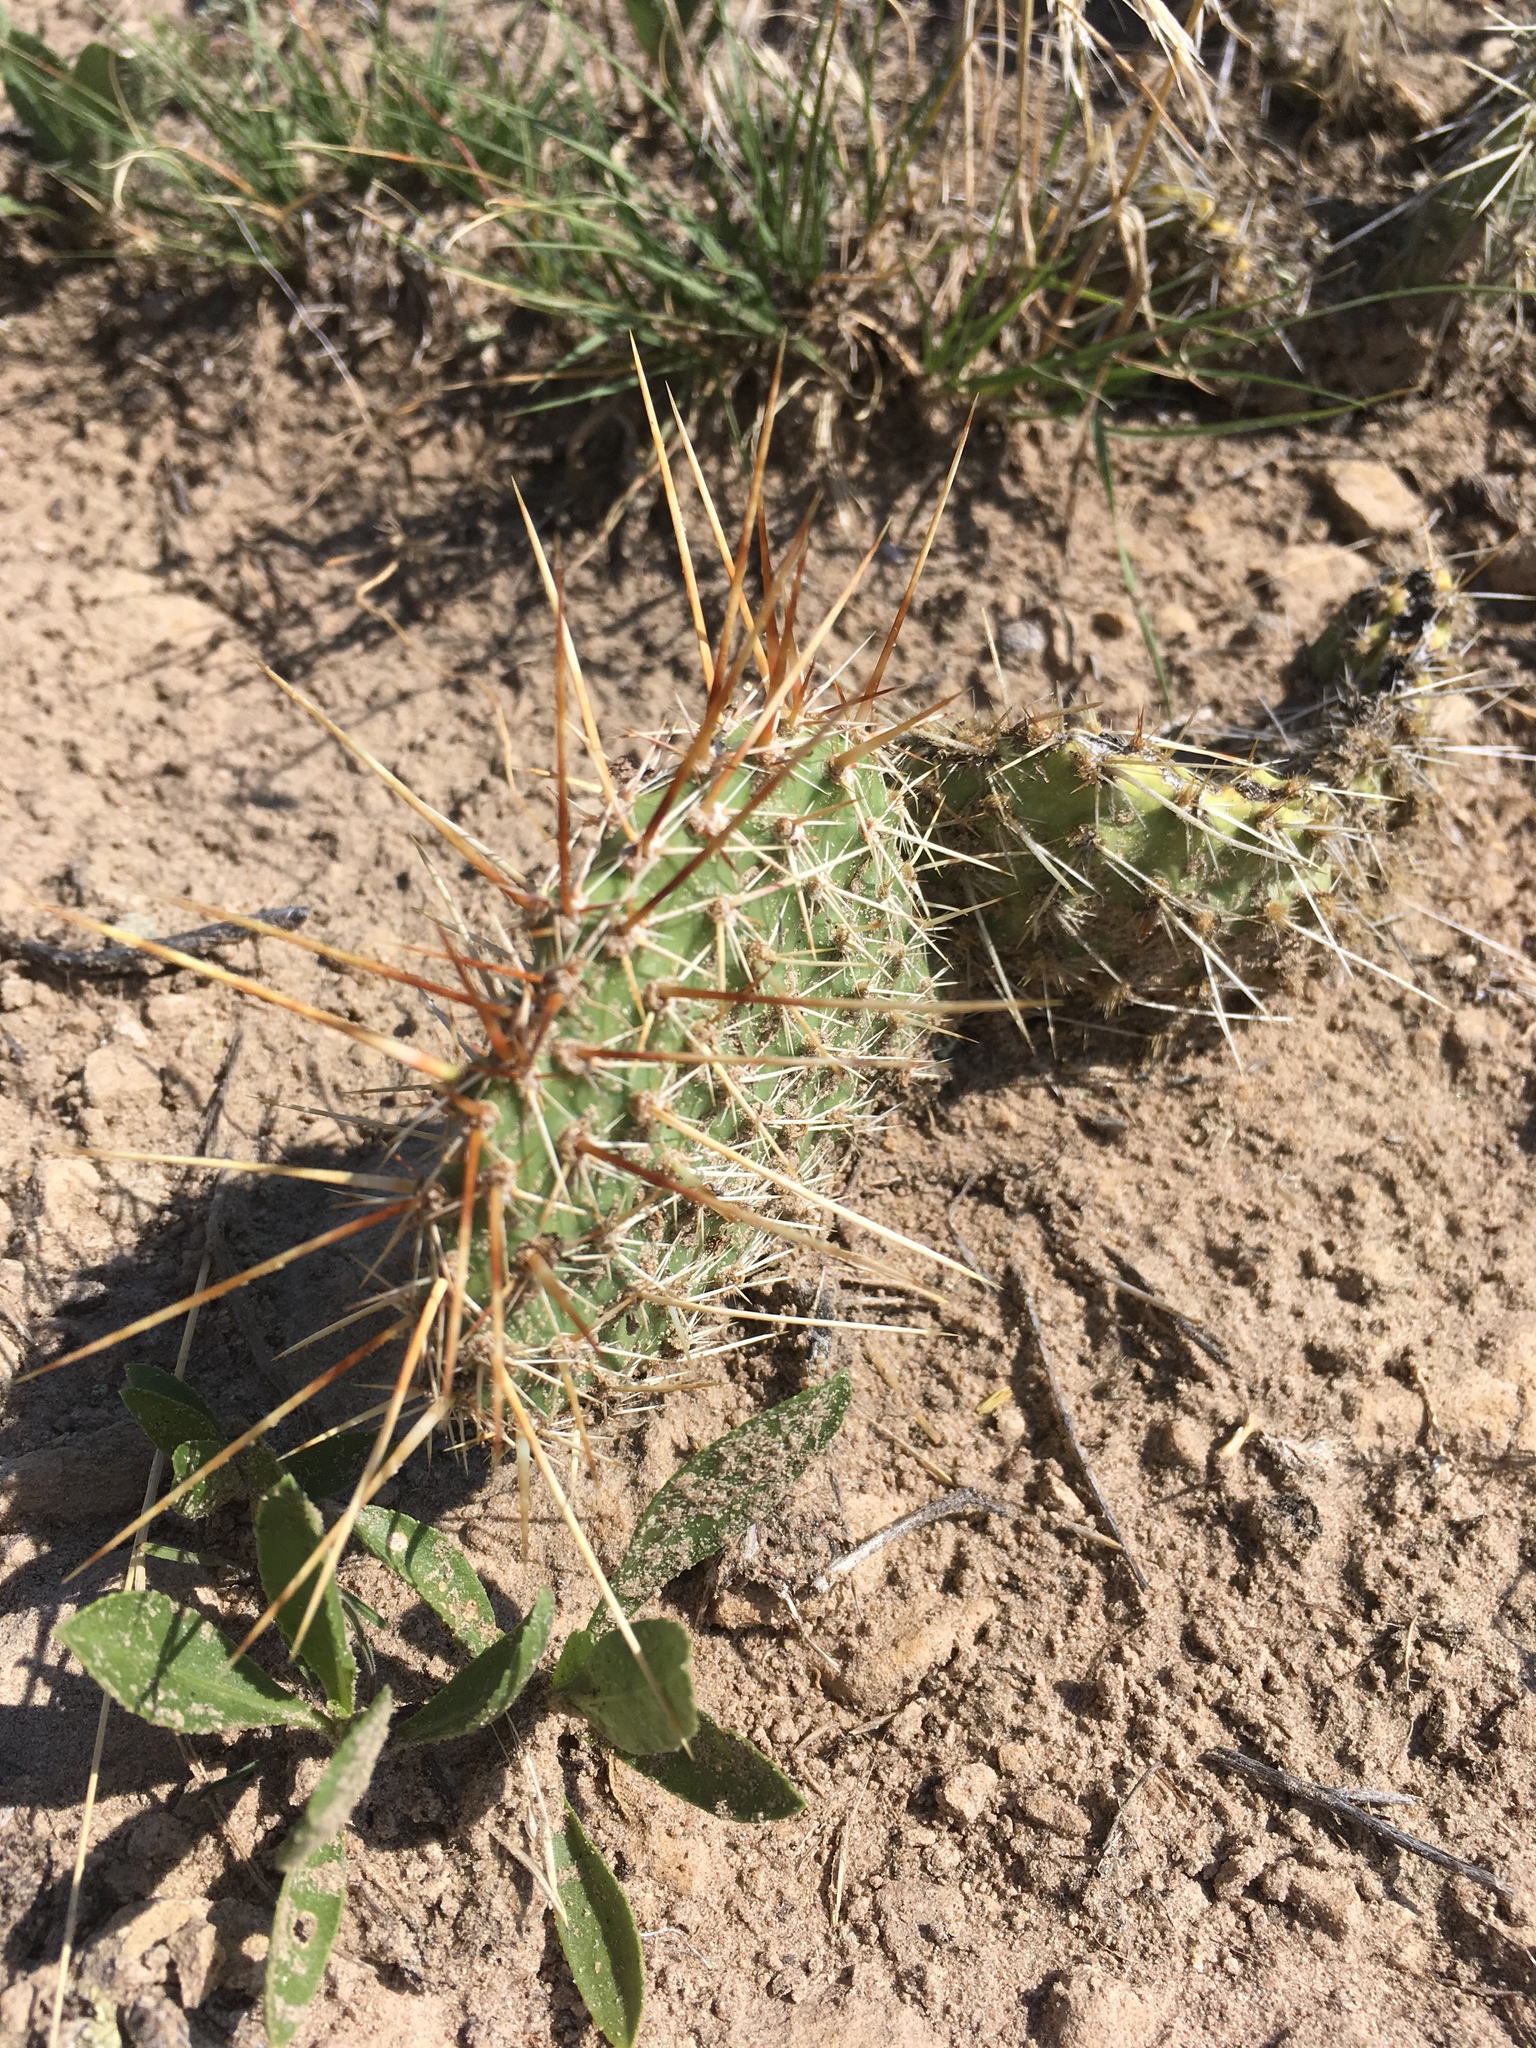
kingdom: Plantae
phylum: Tracheophyta
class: Magnoliopsida
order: Caryophyllales
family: Cactaceae
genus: Opuntia
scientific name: Opuntia polyacantha
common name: Plains prickly-pear
